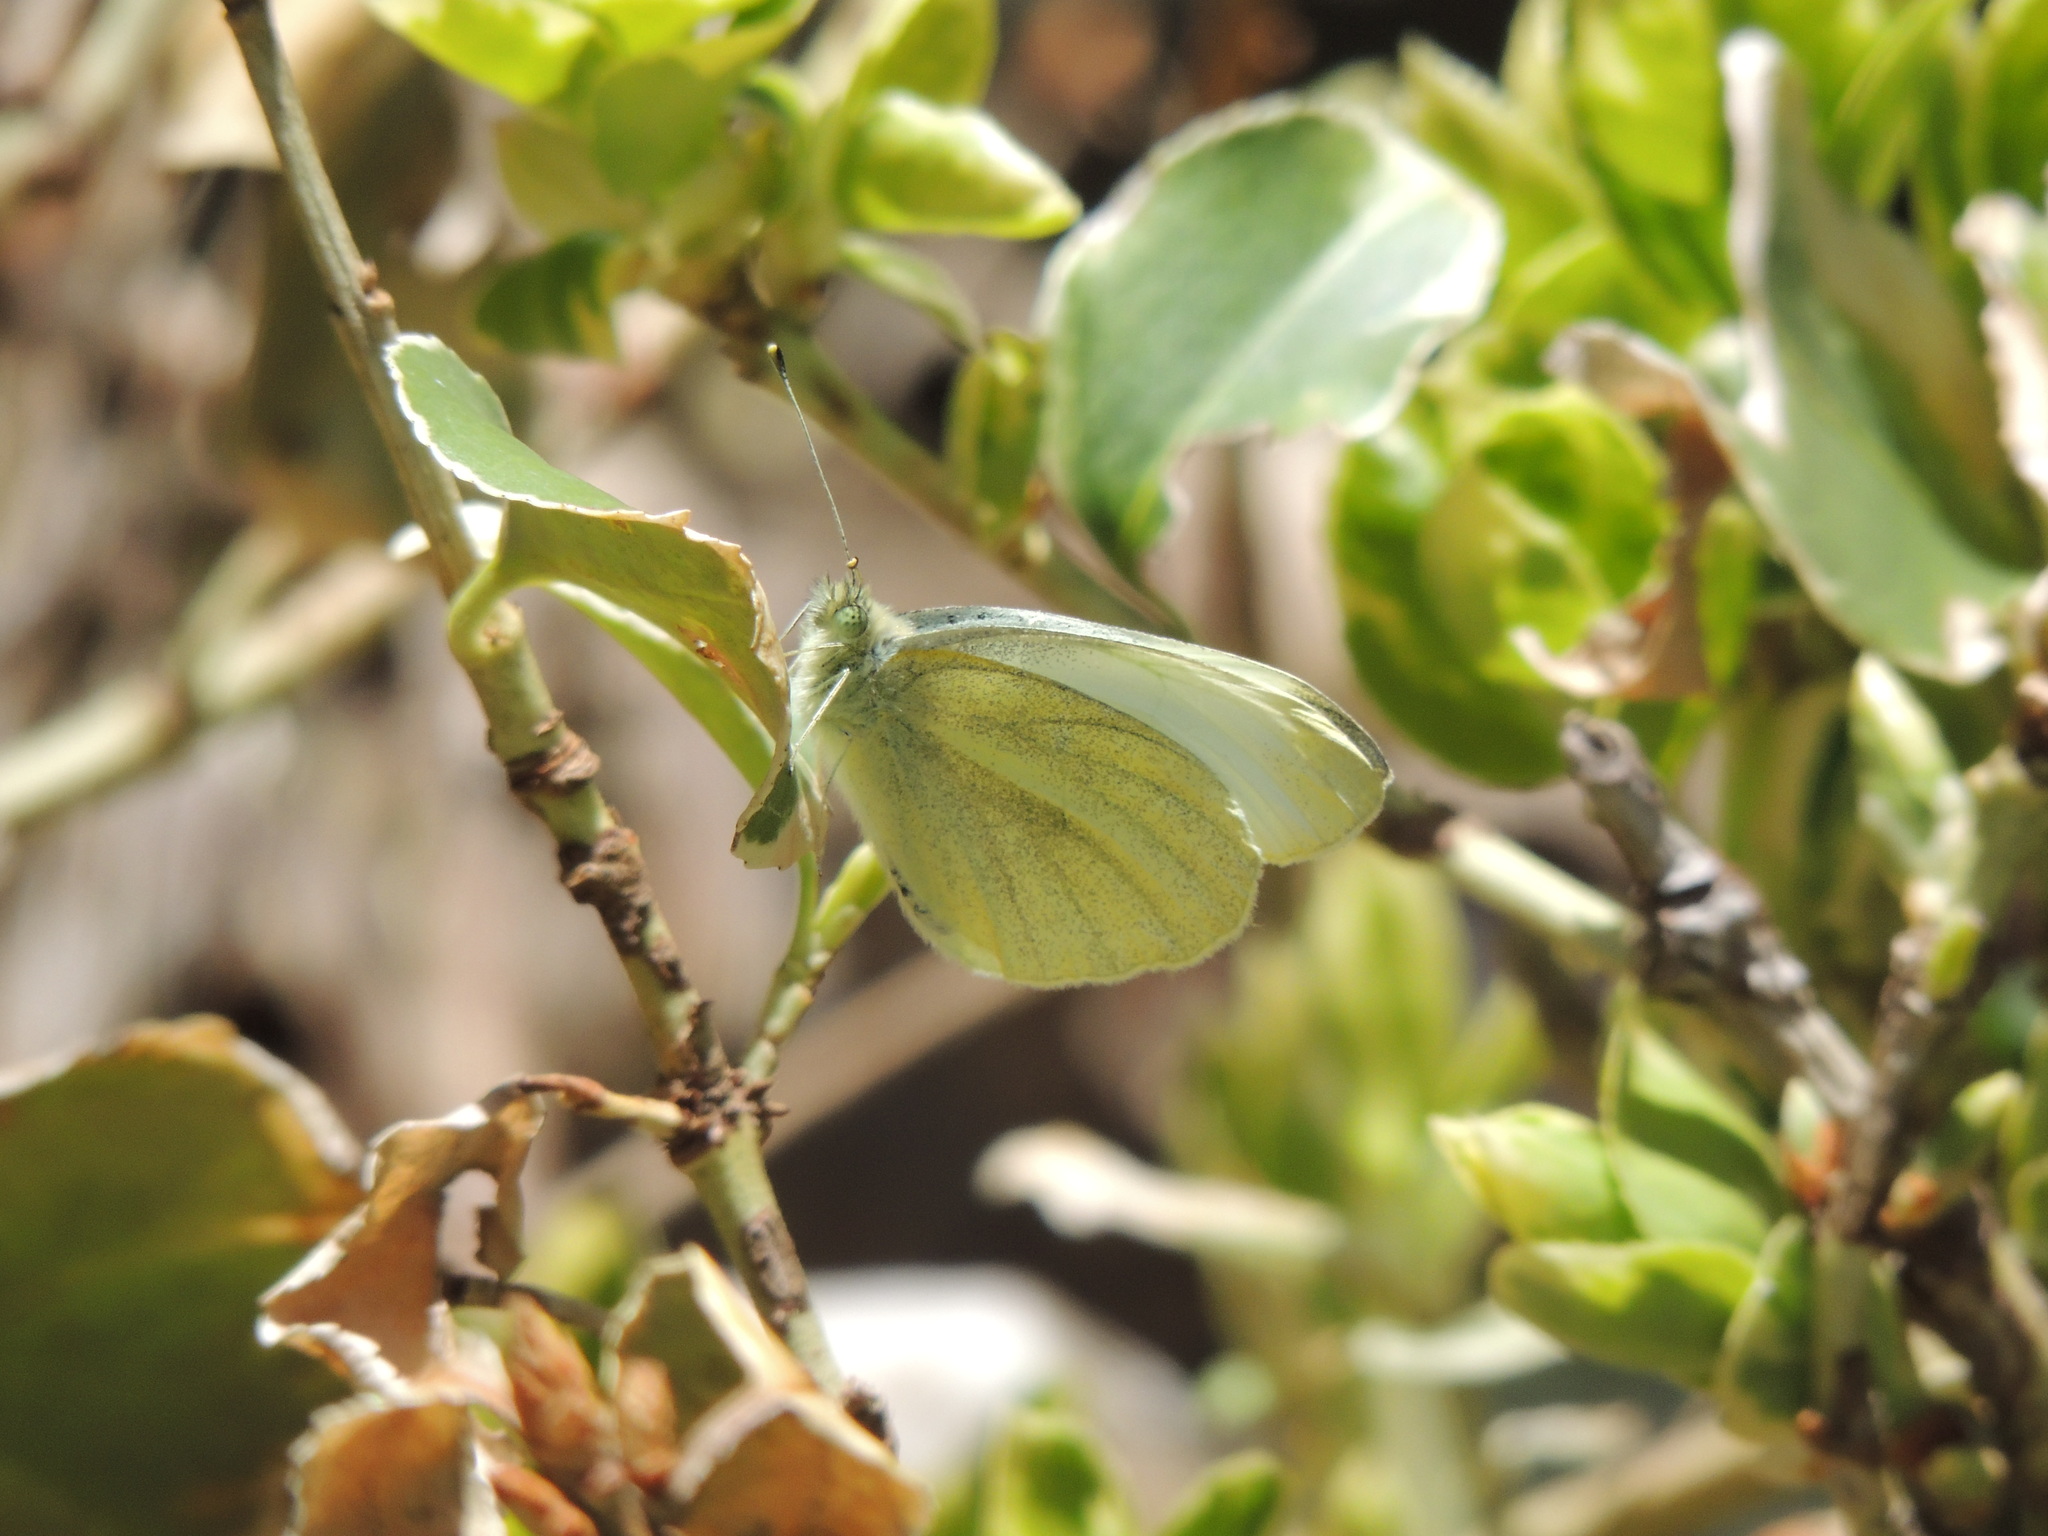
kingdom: Animalia
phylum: Arthropoda
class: Insecta
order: Lepidoptera
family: Pieridae
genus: Pieris
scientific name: Pieris rapae
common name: Small white
